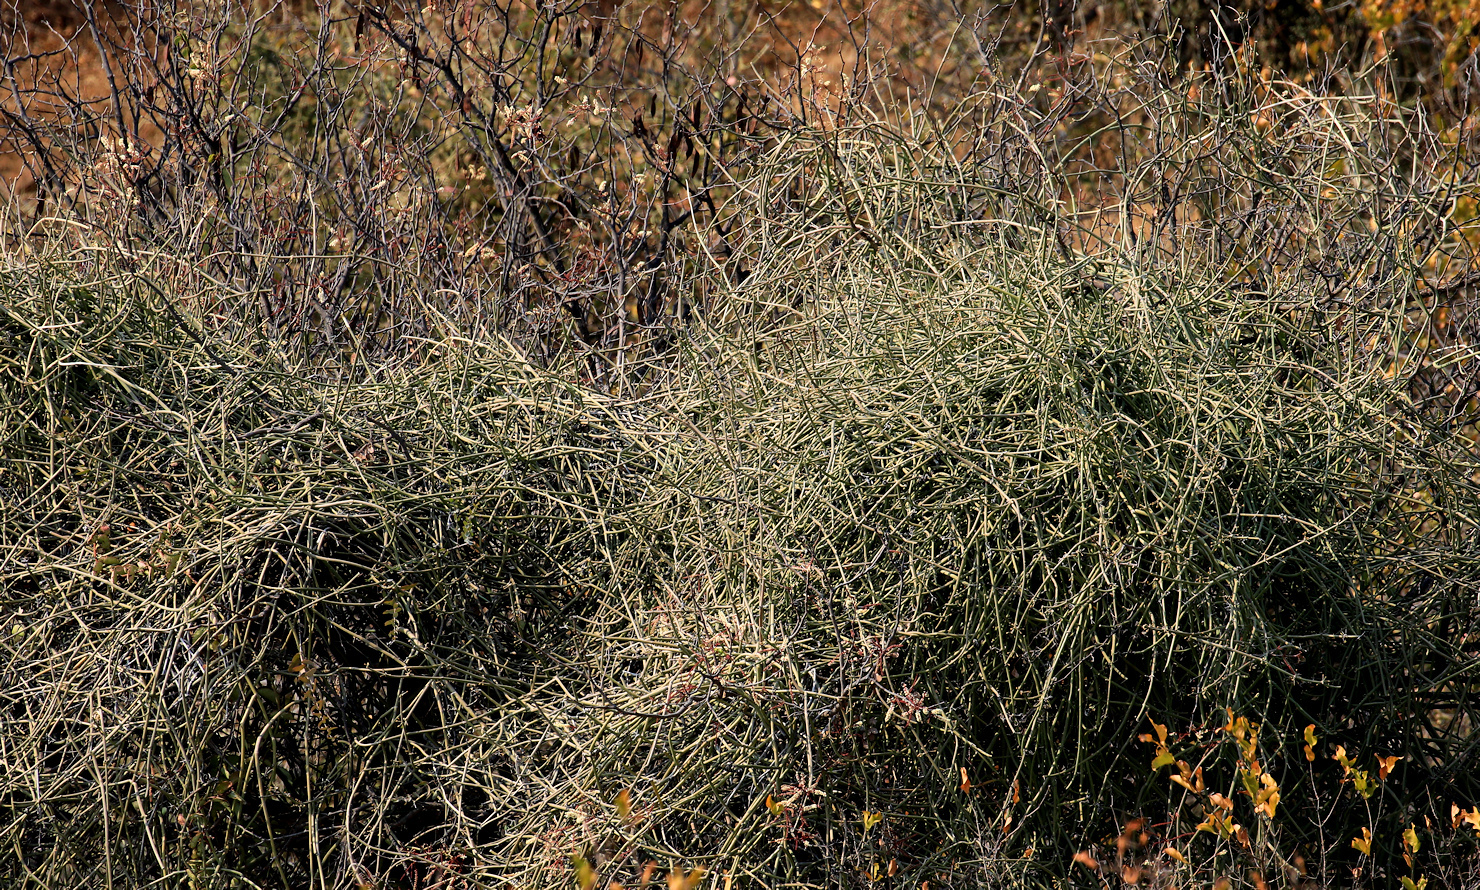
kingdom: Plantae
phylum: Tracheophyta
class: Magnoliopsida
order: Gentianales
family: Apocynaceae
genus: Cynanchum
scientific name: Cynanchum viminale
